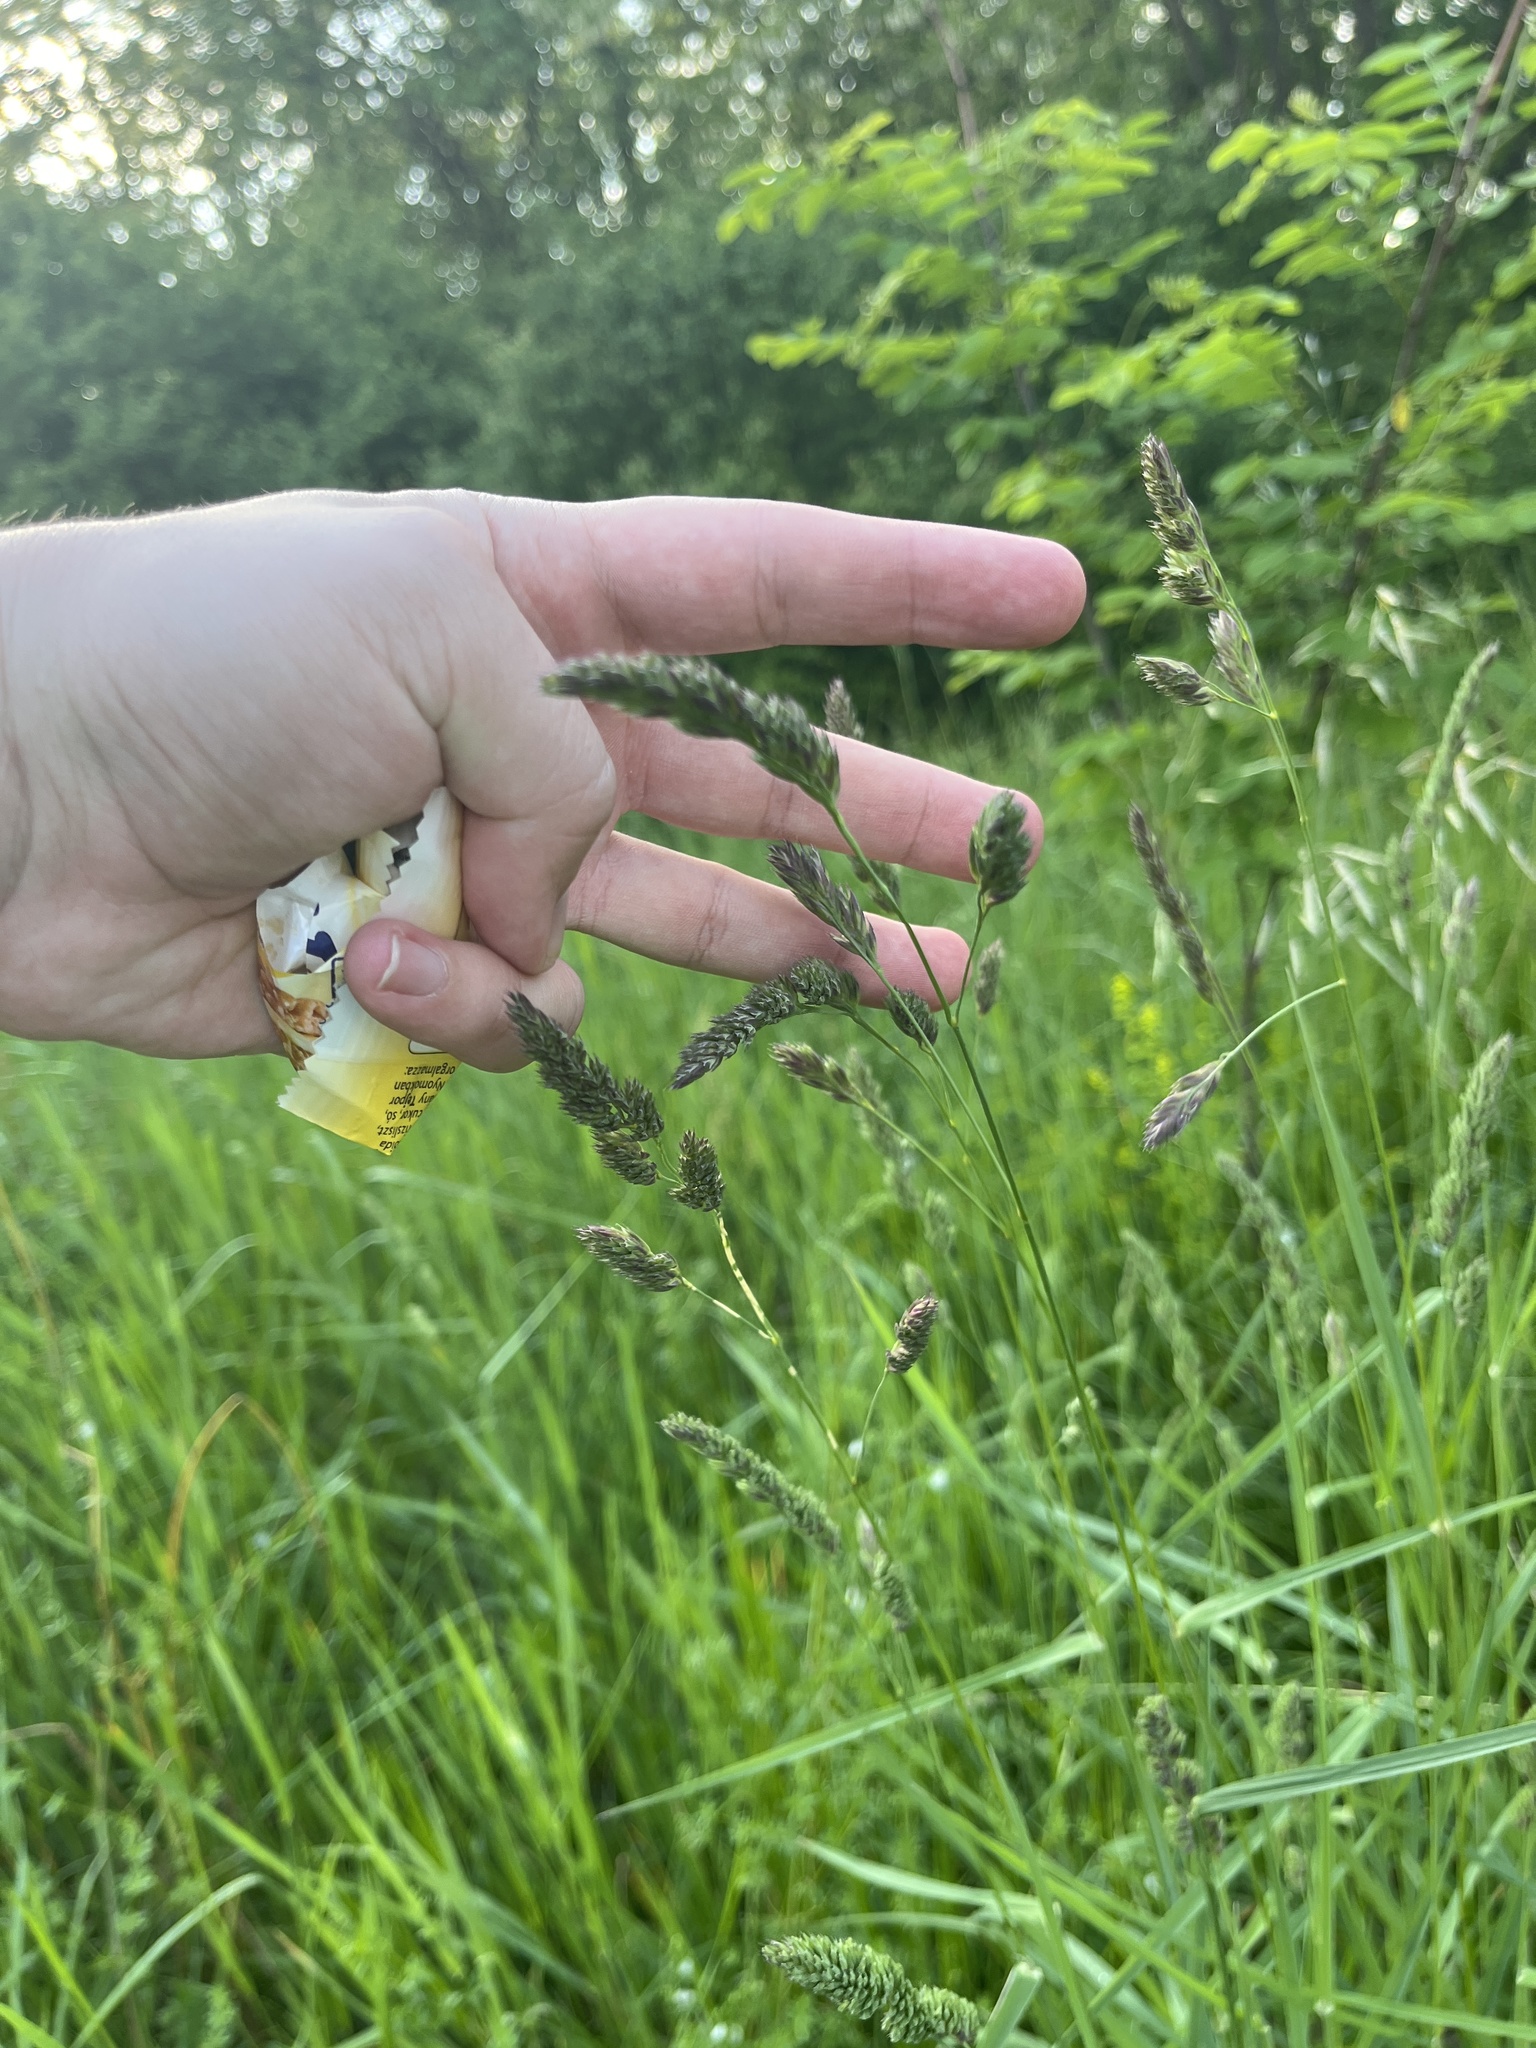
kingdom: Plantae
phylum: Tracheophyta
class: Liliopsida
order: Poales
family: Poaceae
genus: Dactylis
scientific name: Dactylis glomerata
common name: Orchardgrass
